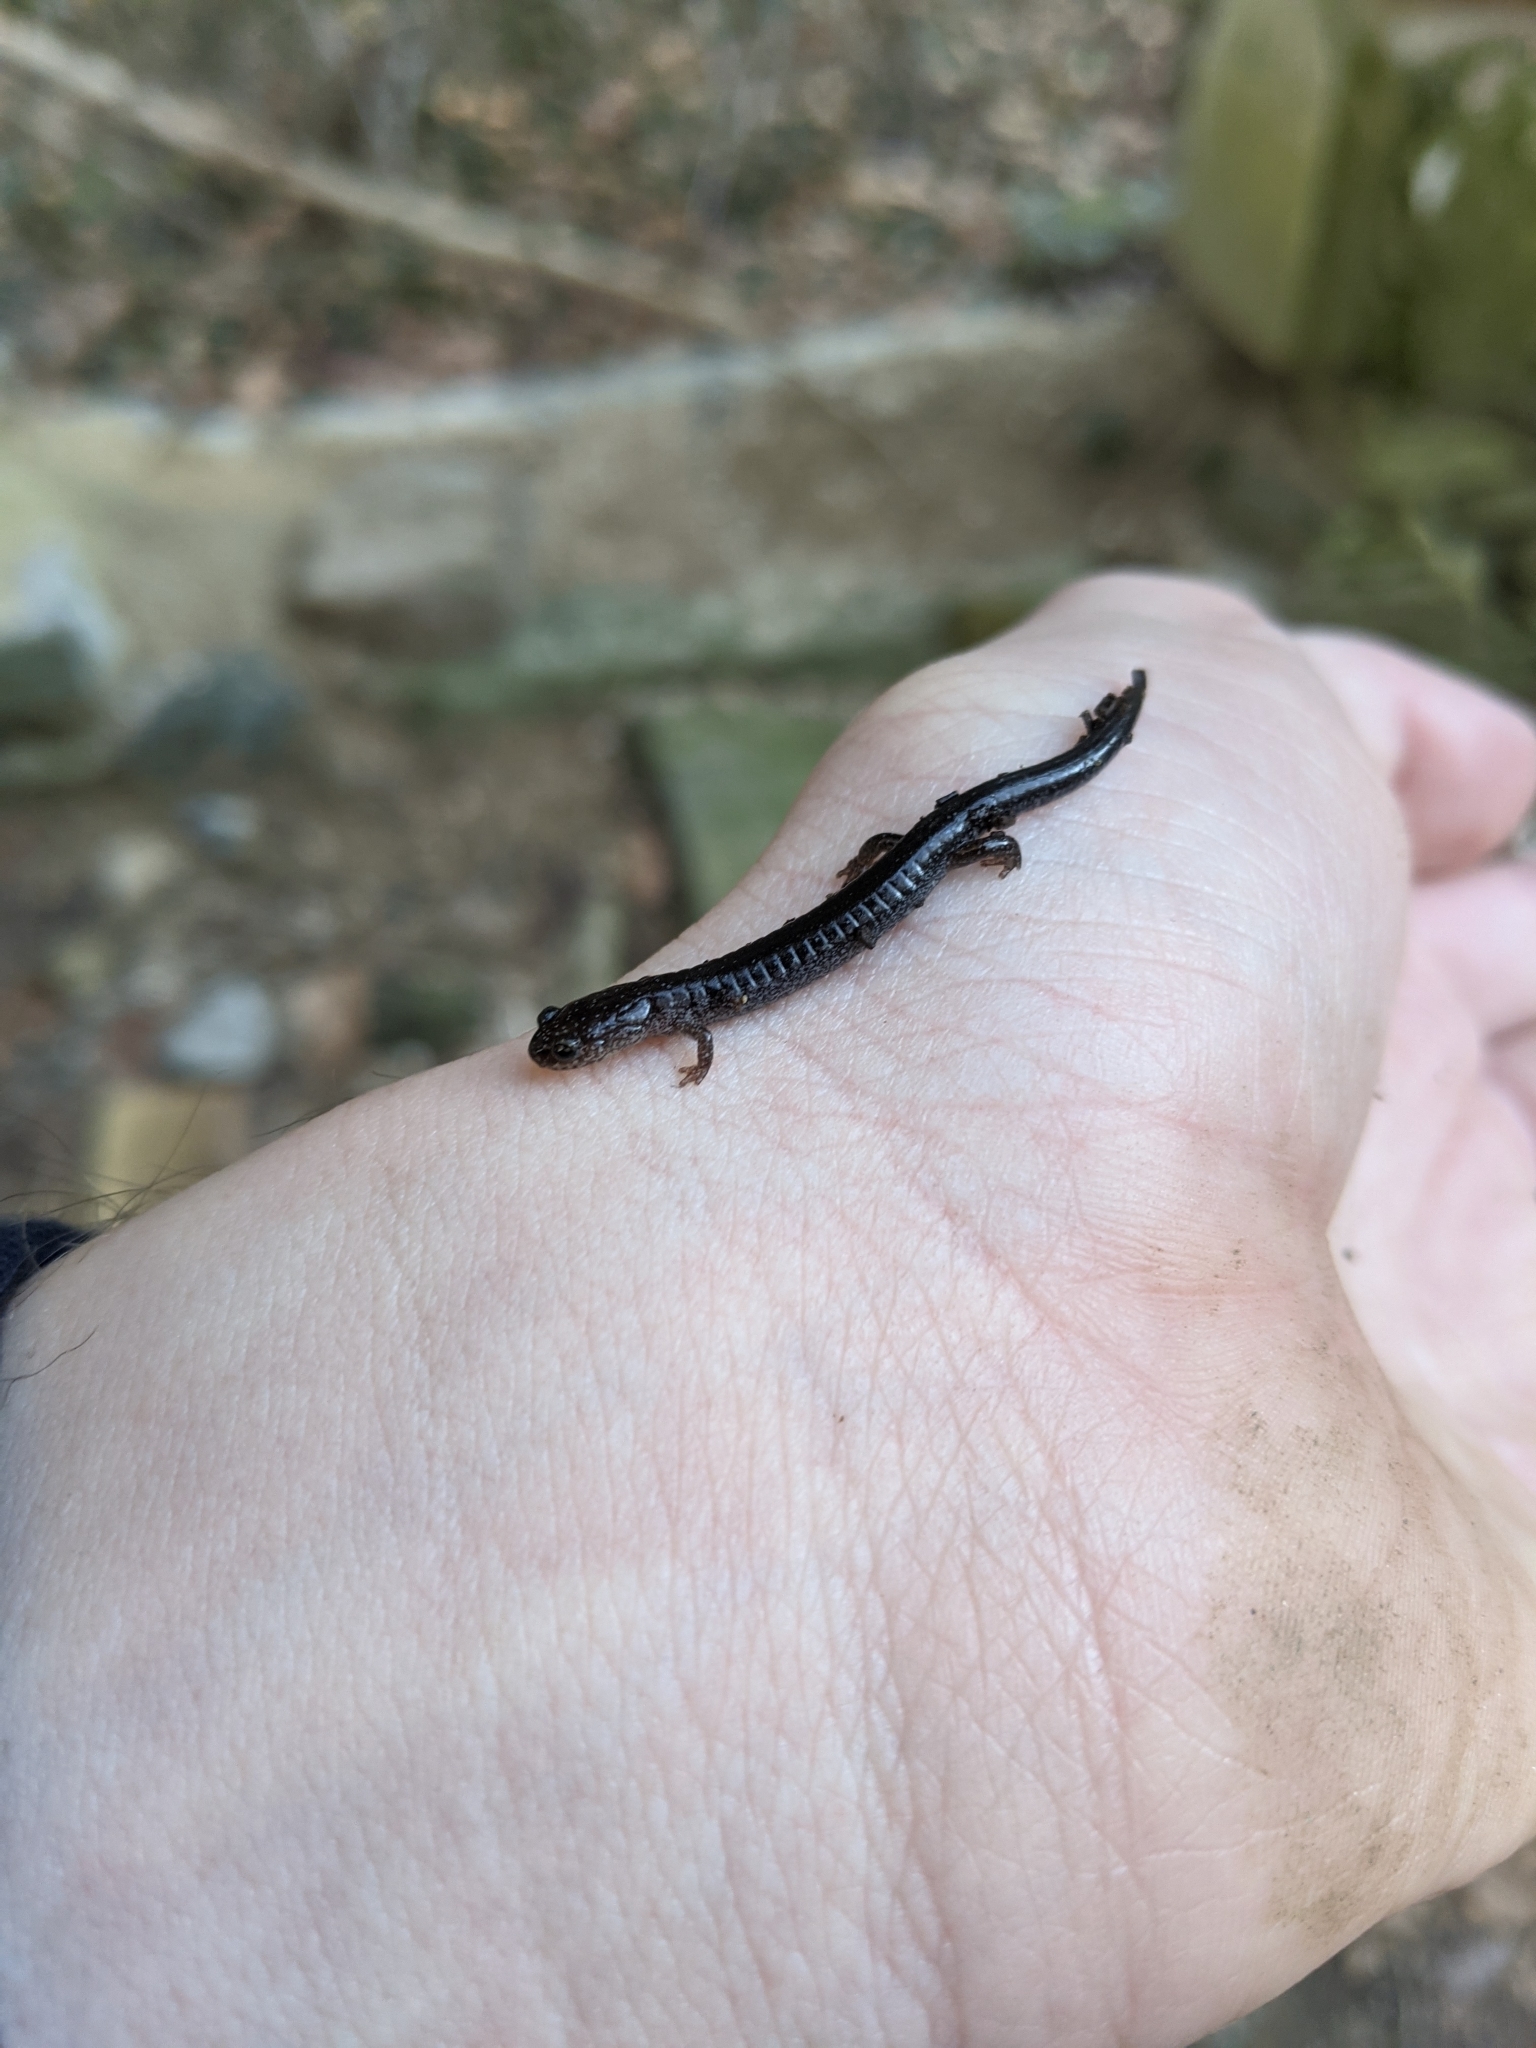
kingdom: Animalia
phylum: Chordata
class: Amphibia
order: Caudata
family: Plethodontidae
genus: Plethodon
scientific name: Plethodon cinereus
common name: Redback salamander
